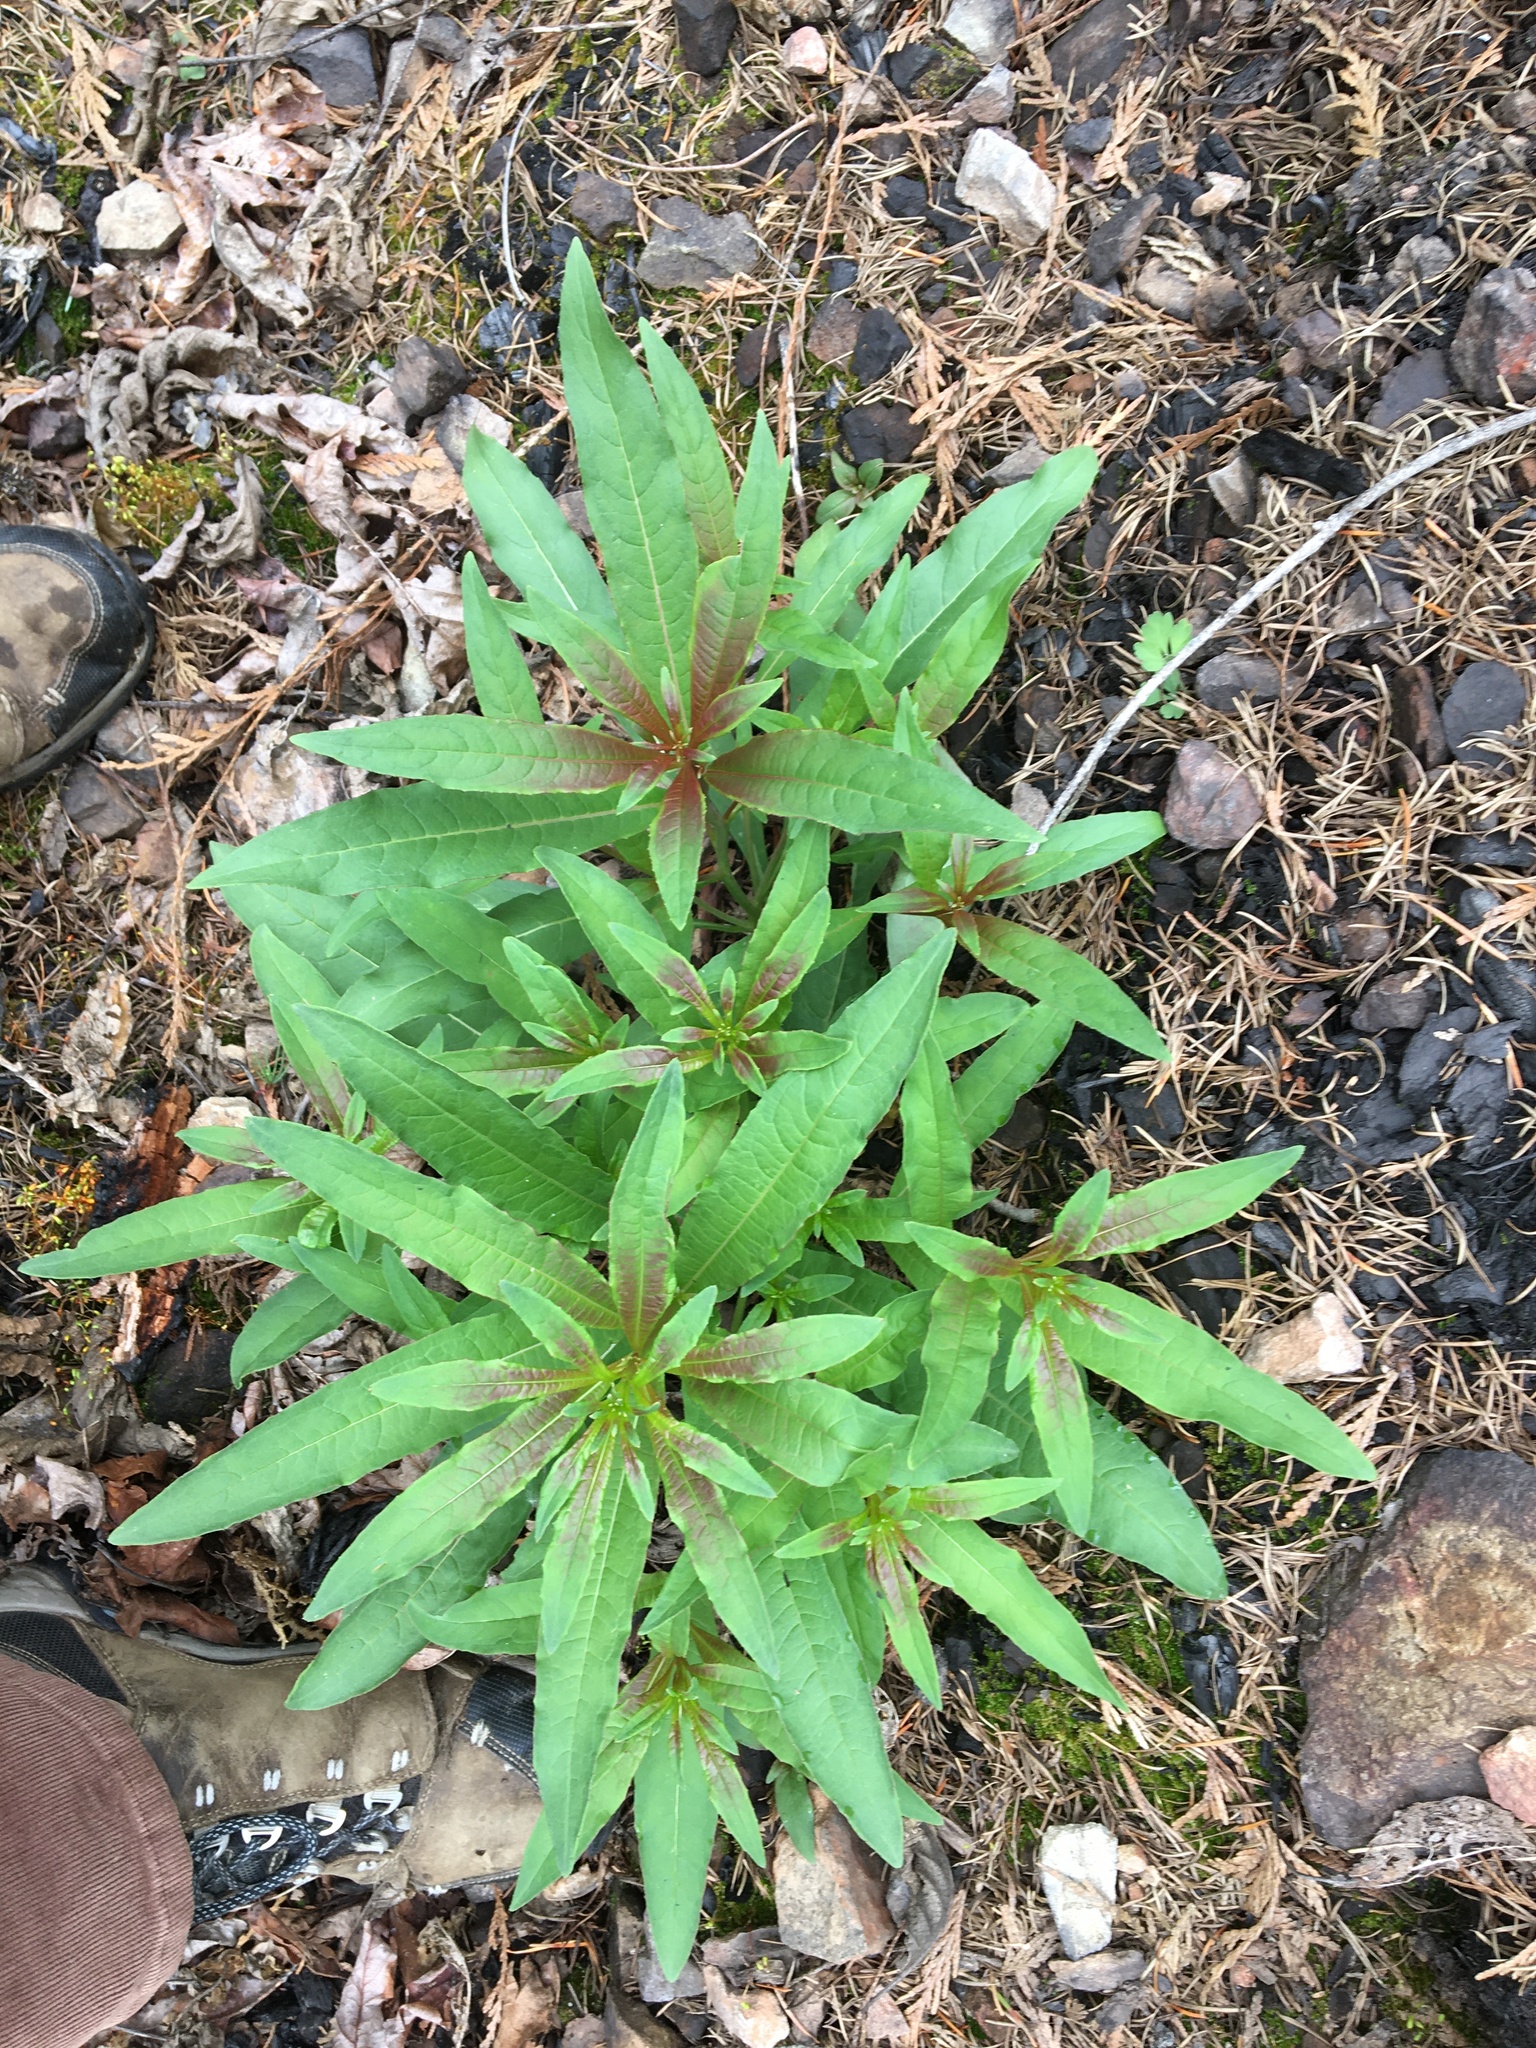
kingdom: Plantae
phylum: Tracheophyta
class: Magnoliopsida
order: Myrtales
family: Onagraceae
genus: Chamaenerion
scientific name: Chamaenerion angustifolium
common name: Fireweed
